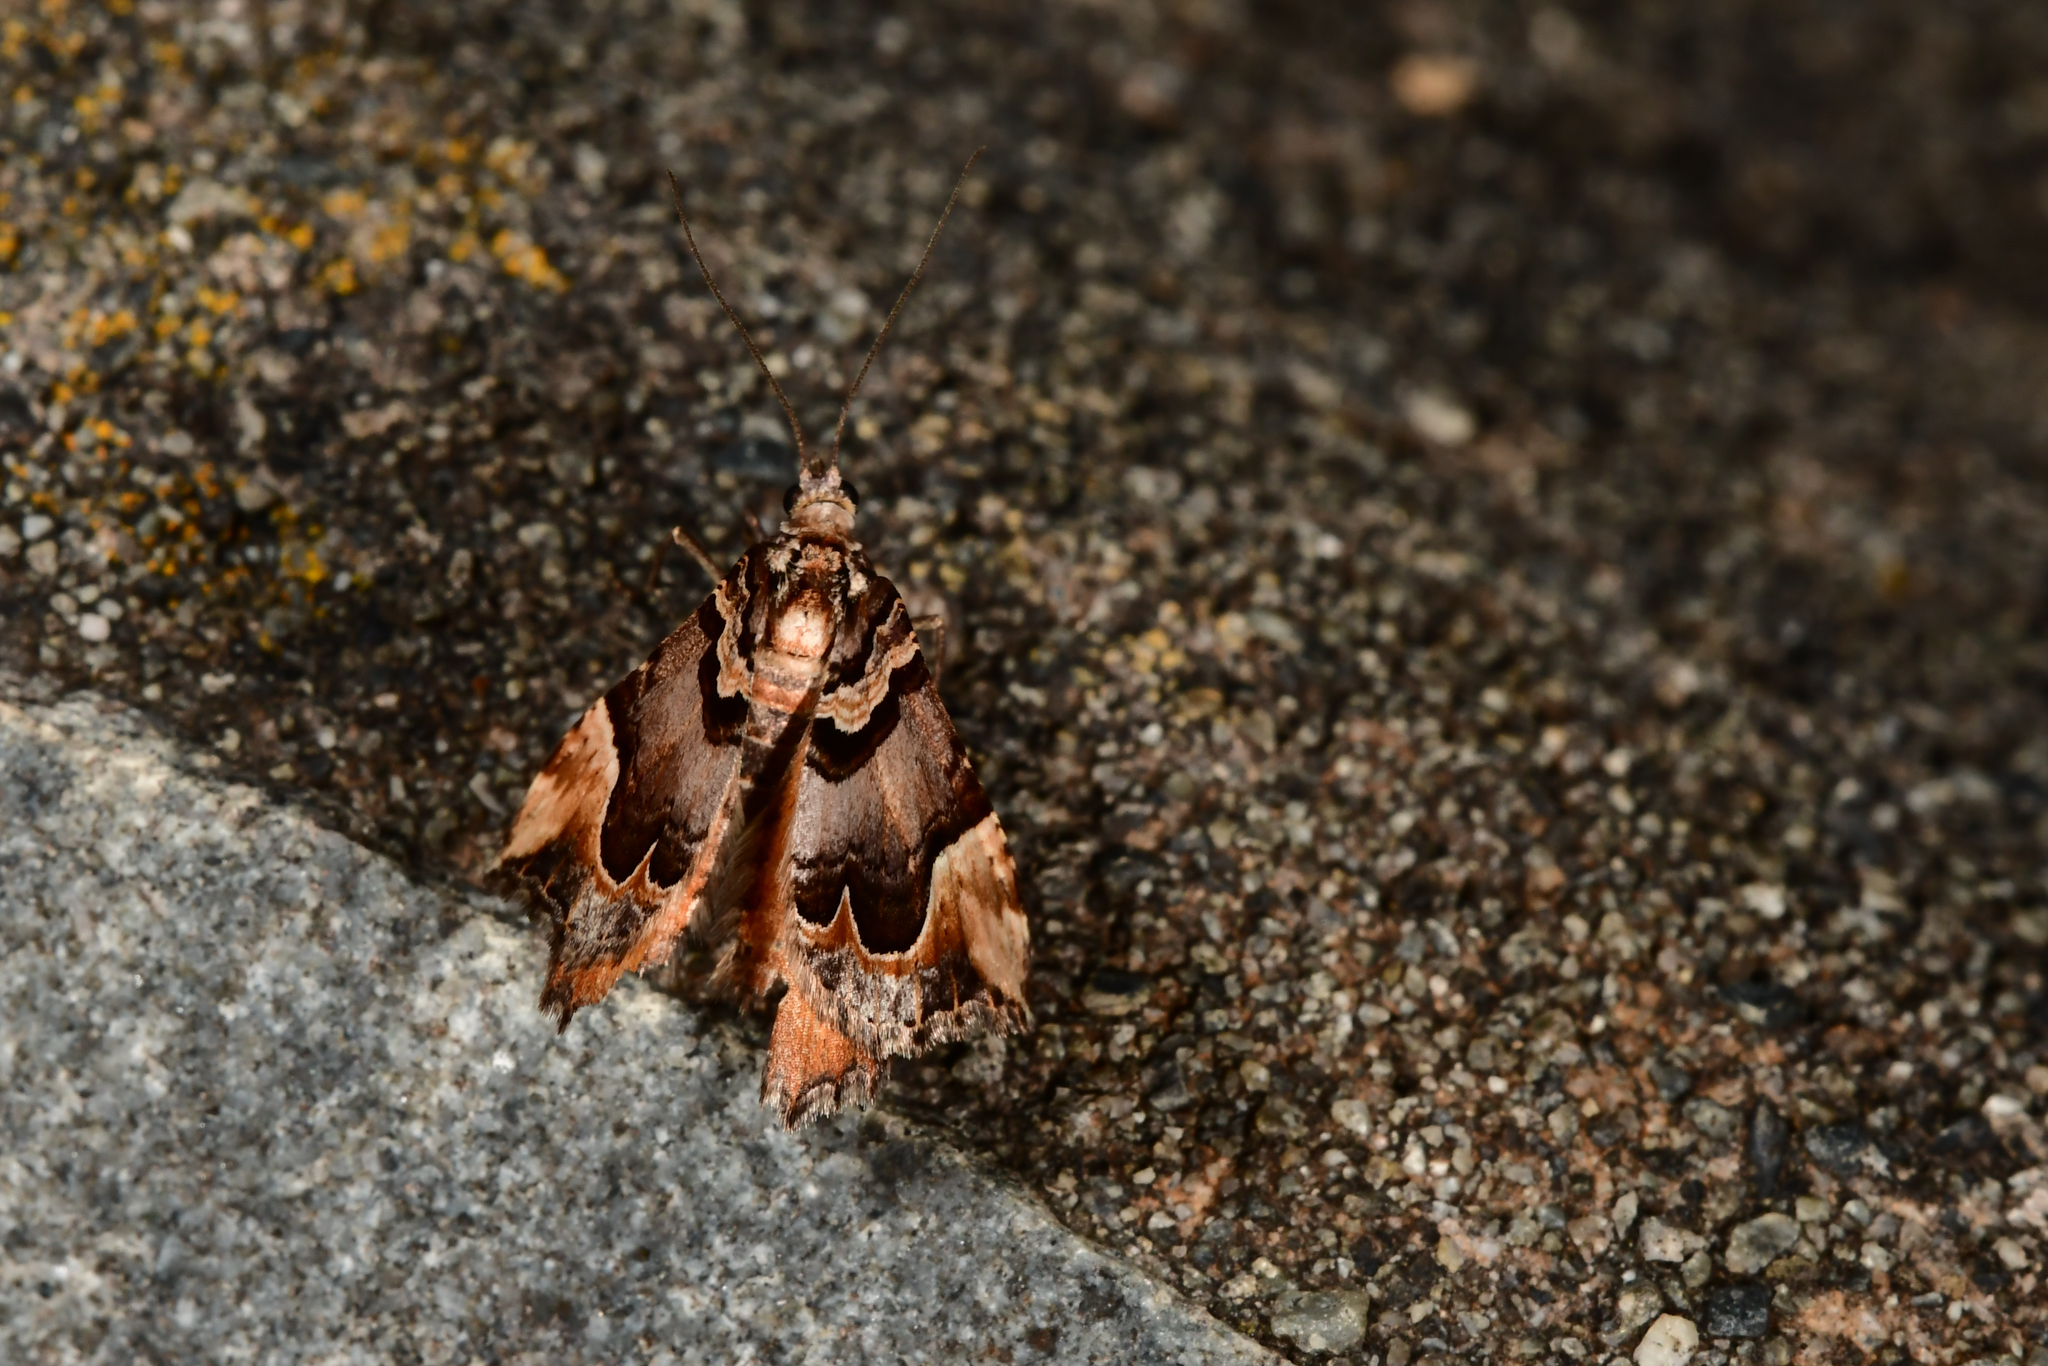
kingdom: Animalia
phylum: Arthropoda
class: Insecta
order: Lepidoptera
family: Geometridae
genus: Asaphodes
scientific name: Asaphodes chlamydota
